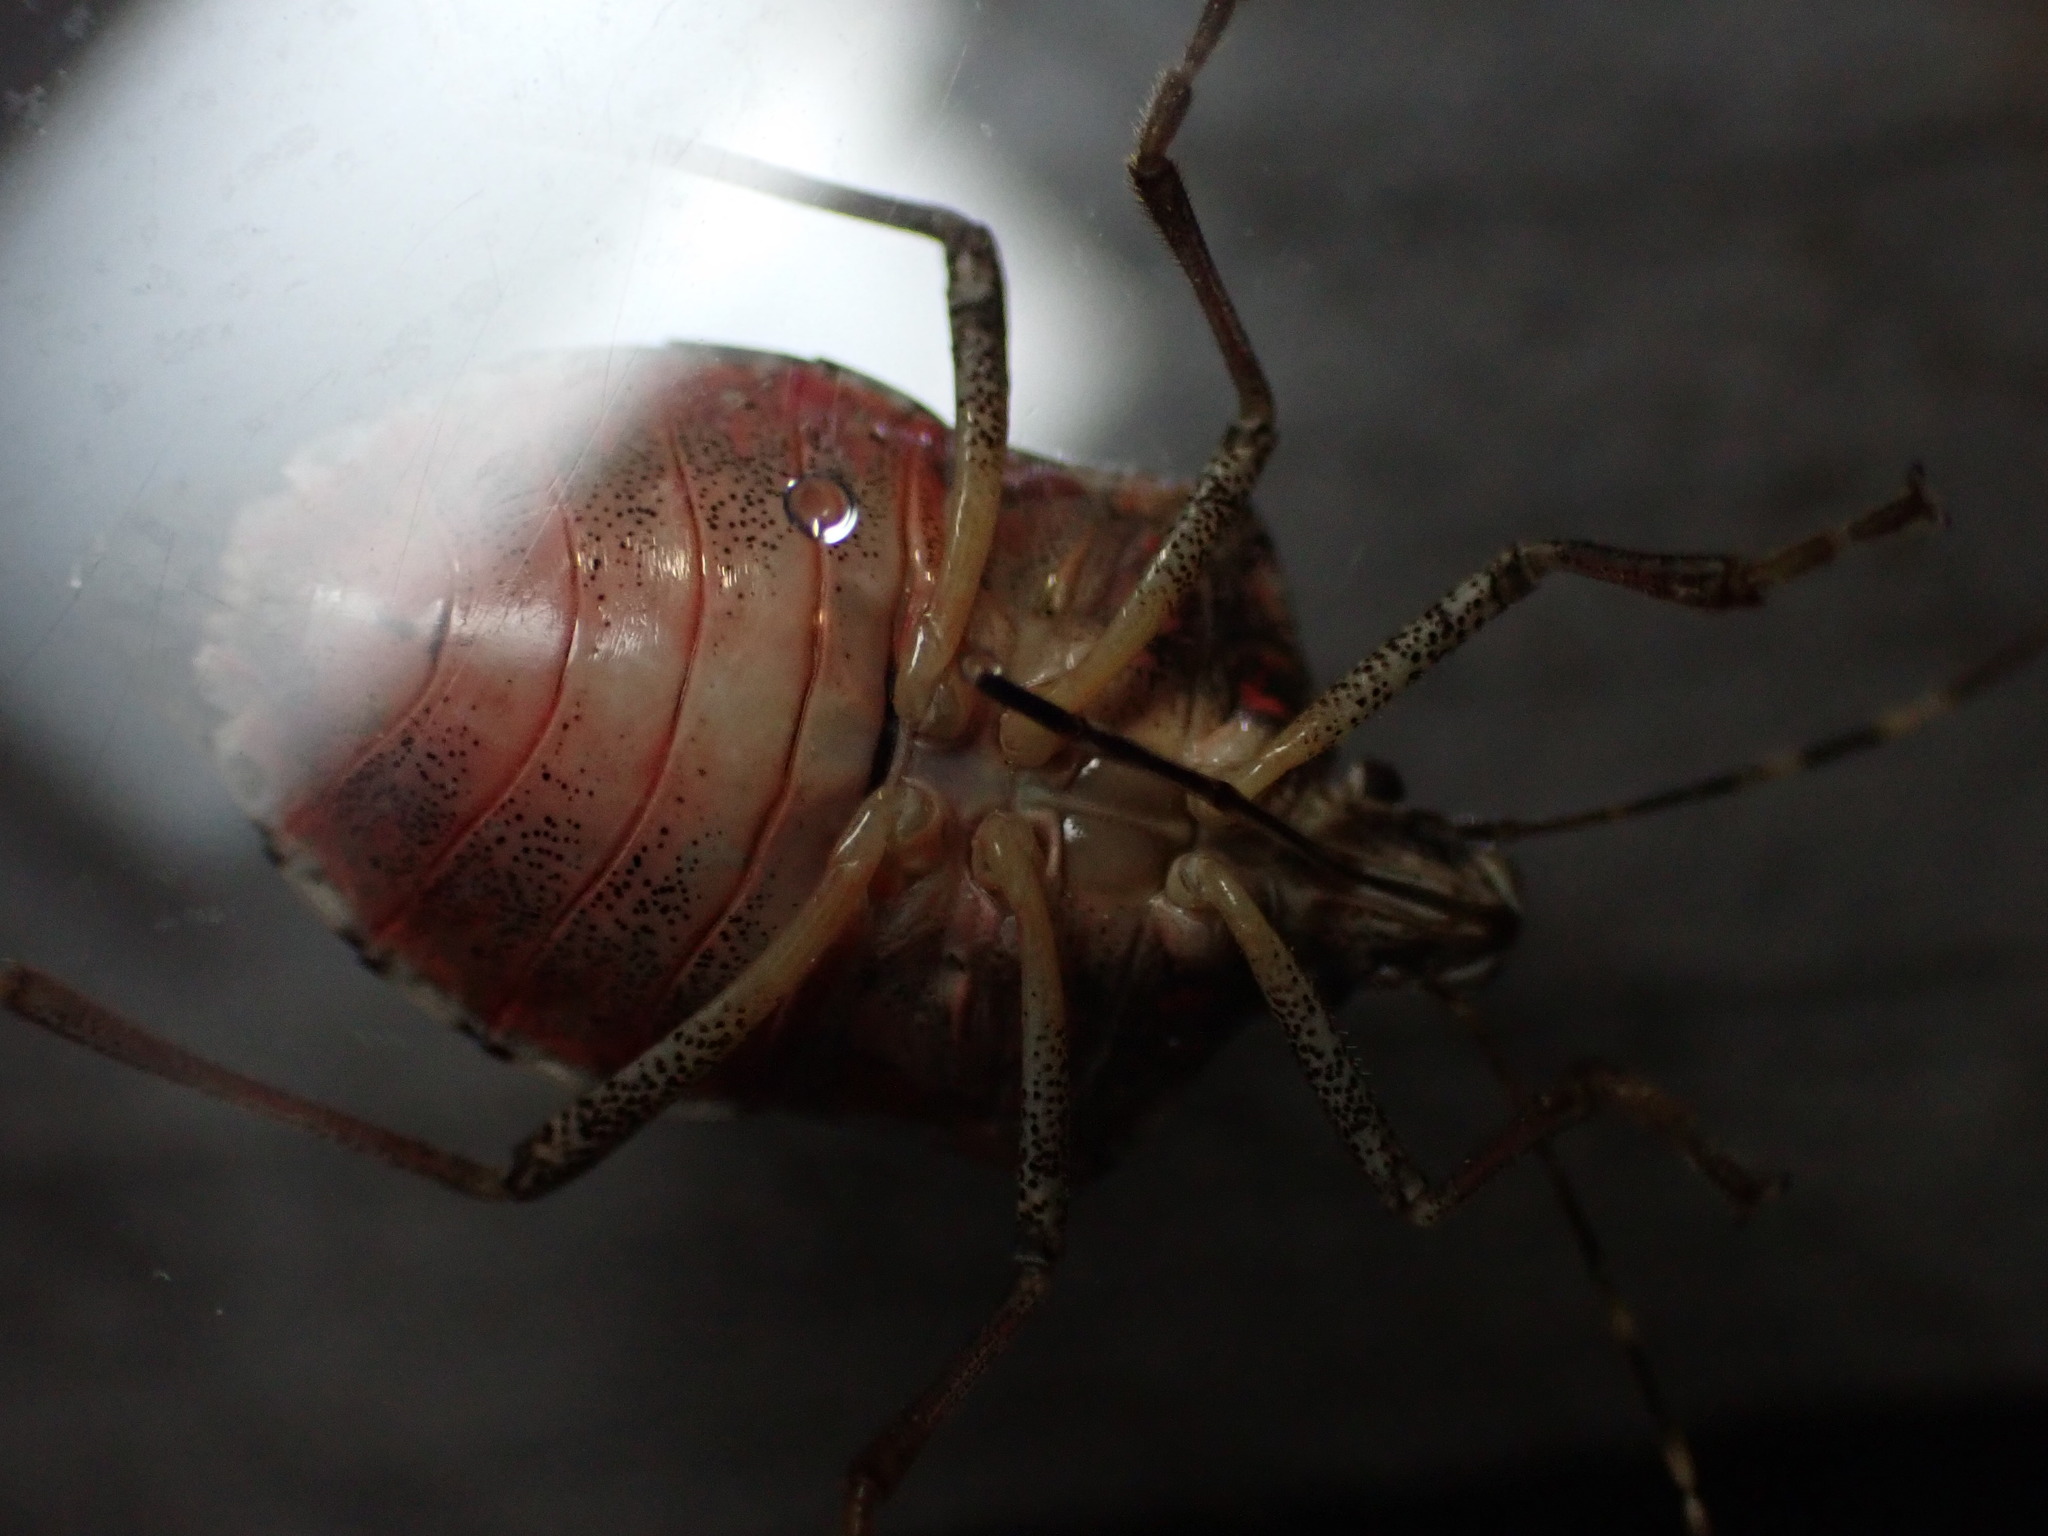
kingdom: Animalia
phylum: Arthropoda
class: Insecta
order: Hemiptera
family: Pentatomidae
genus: Halyomorpha
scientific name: Halyomorpha halys
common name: Brown marmorated stink bug
